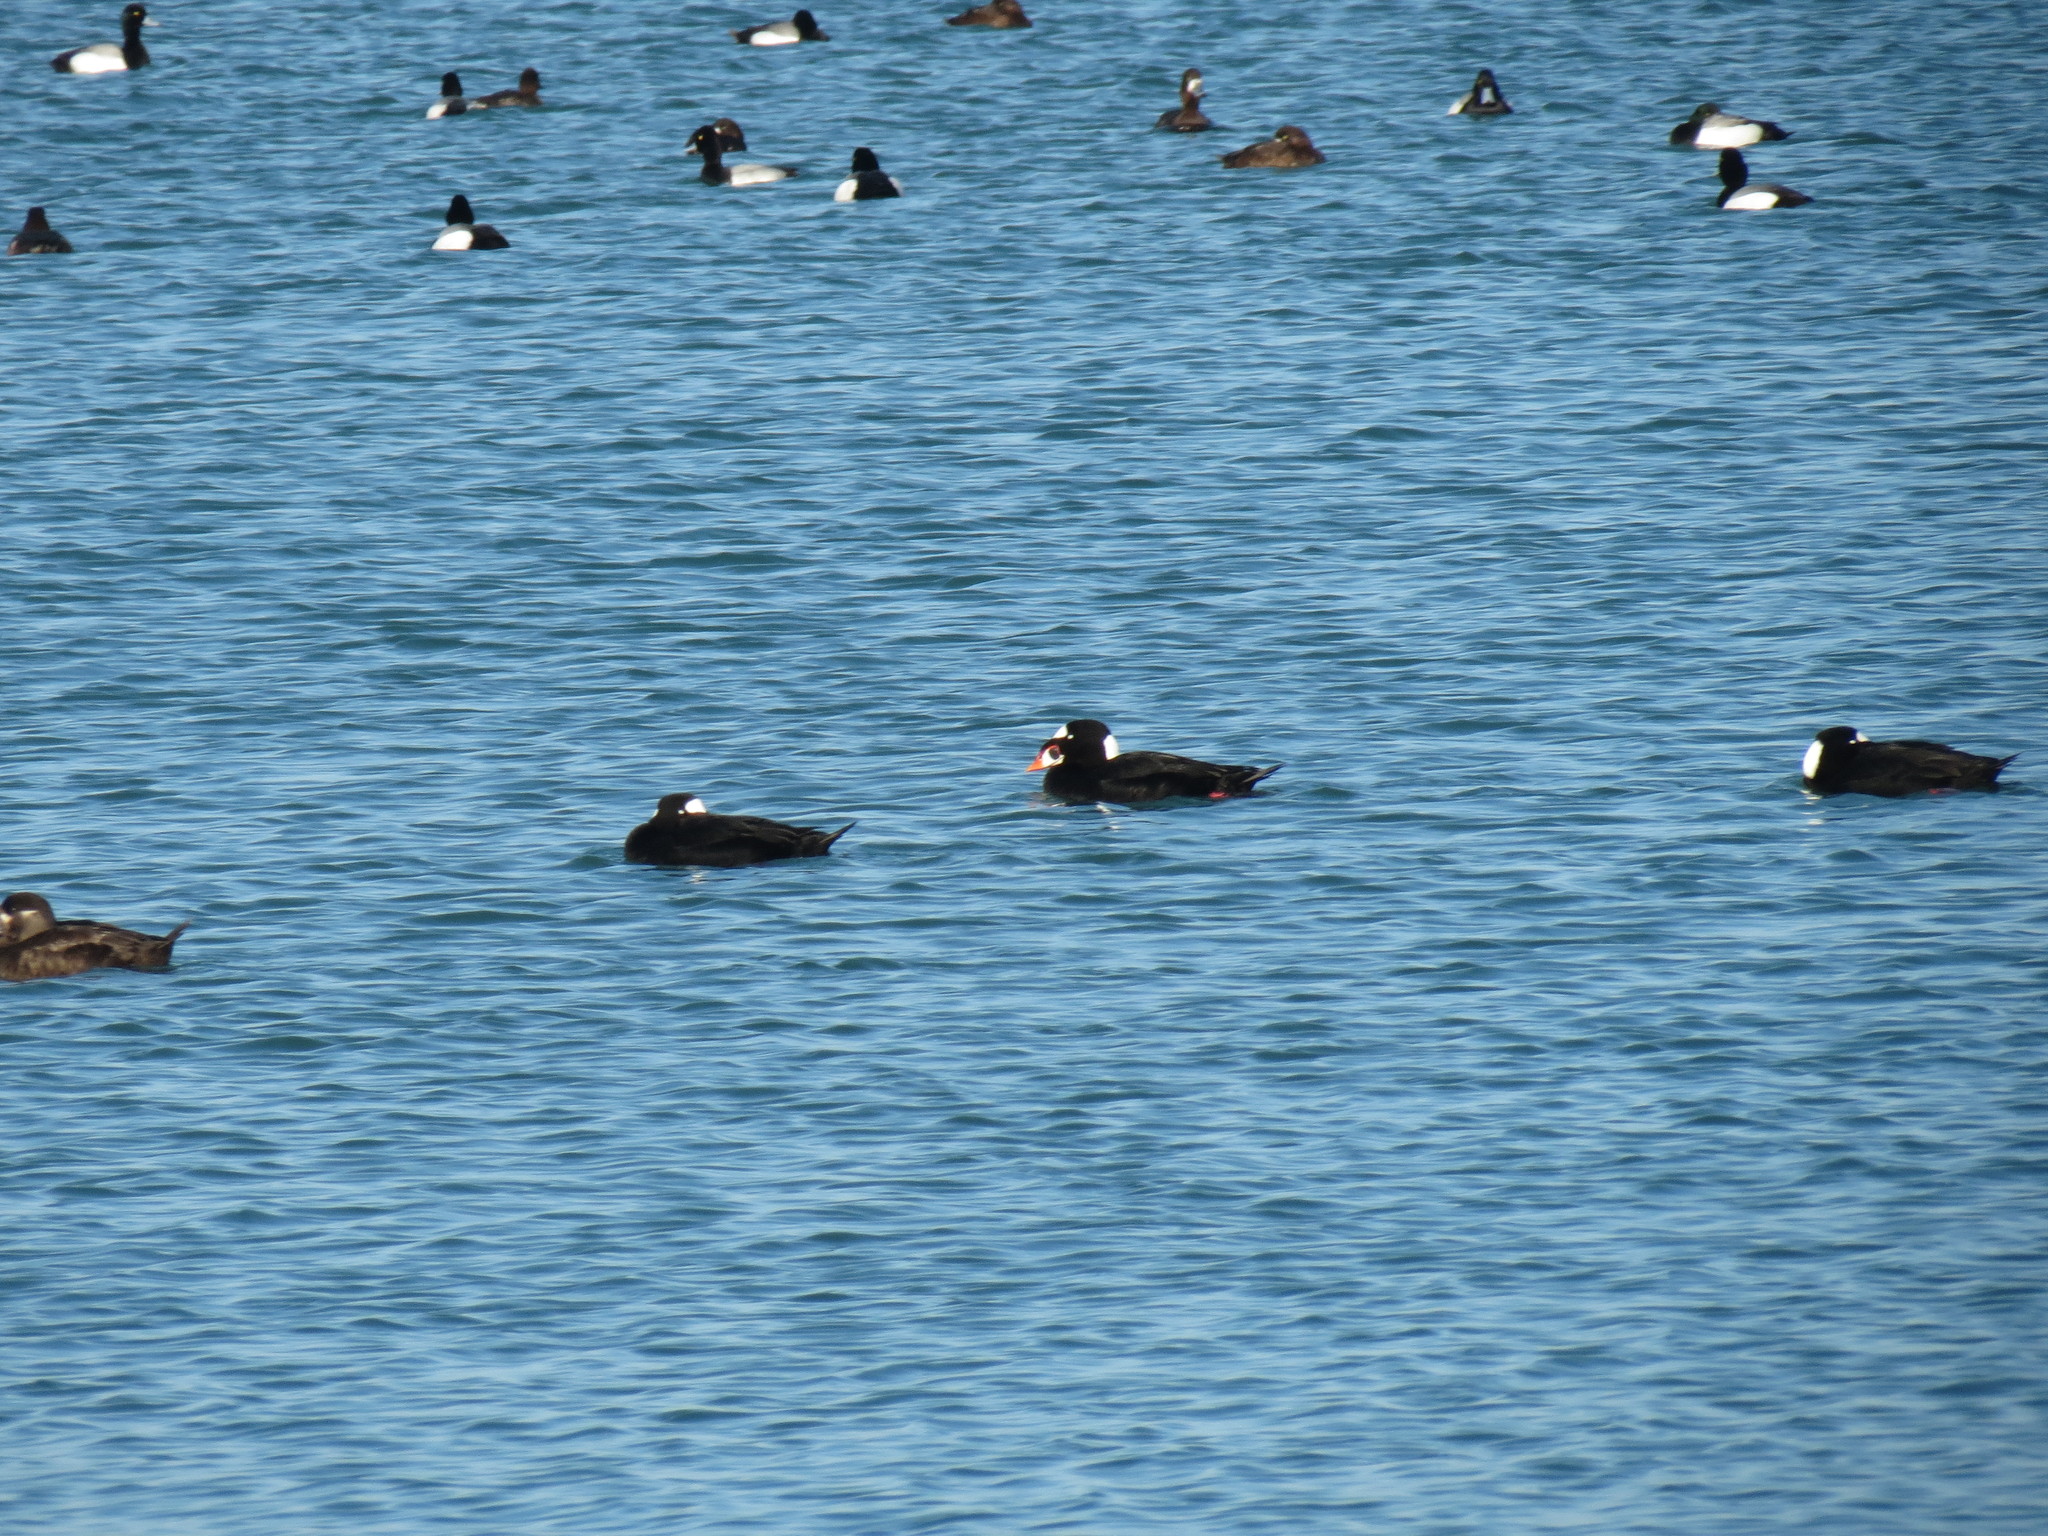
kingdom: Animalia
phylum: Chordata
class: Aves
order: Anseriformes
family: Anatidae
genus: Melanitta
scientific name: Melanitta perspicillata
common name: Surf scoter
